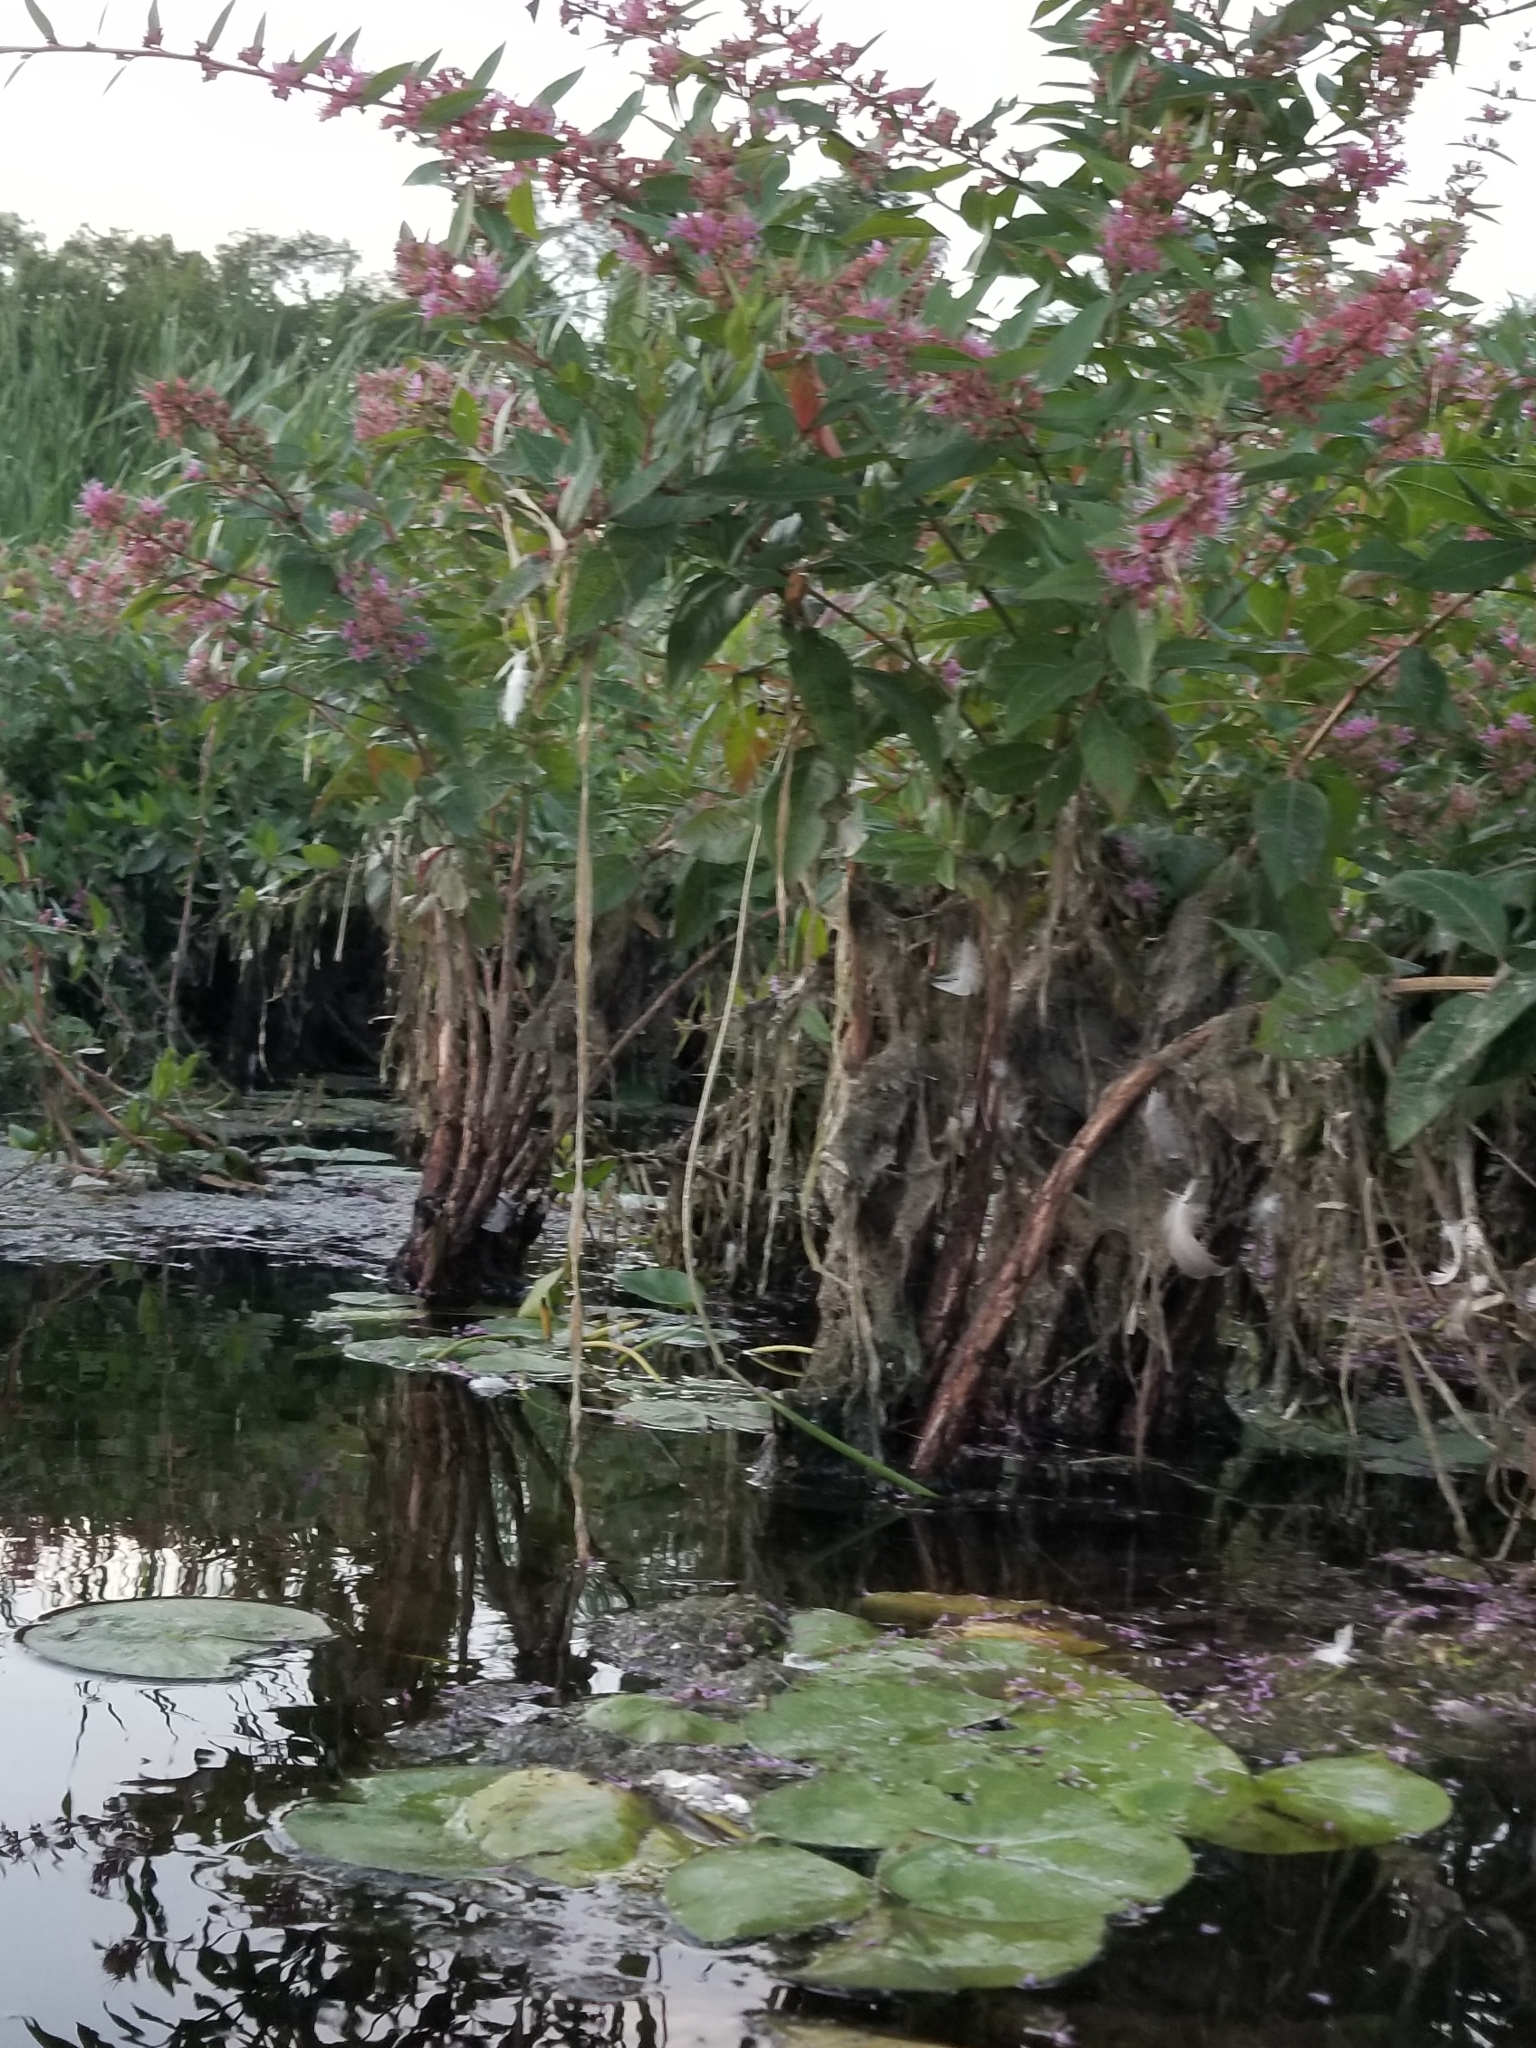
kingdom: Plantae
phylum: Tracheophyta
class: Magnoliopsida
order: Myrtales
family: Lythraceae
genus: Decodon
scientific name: Decodon verticillatus
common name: Hairy swamp loosestrife
